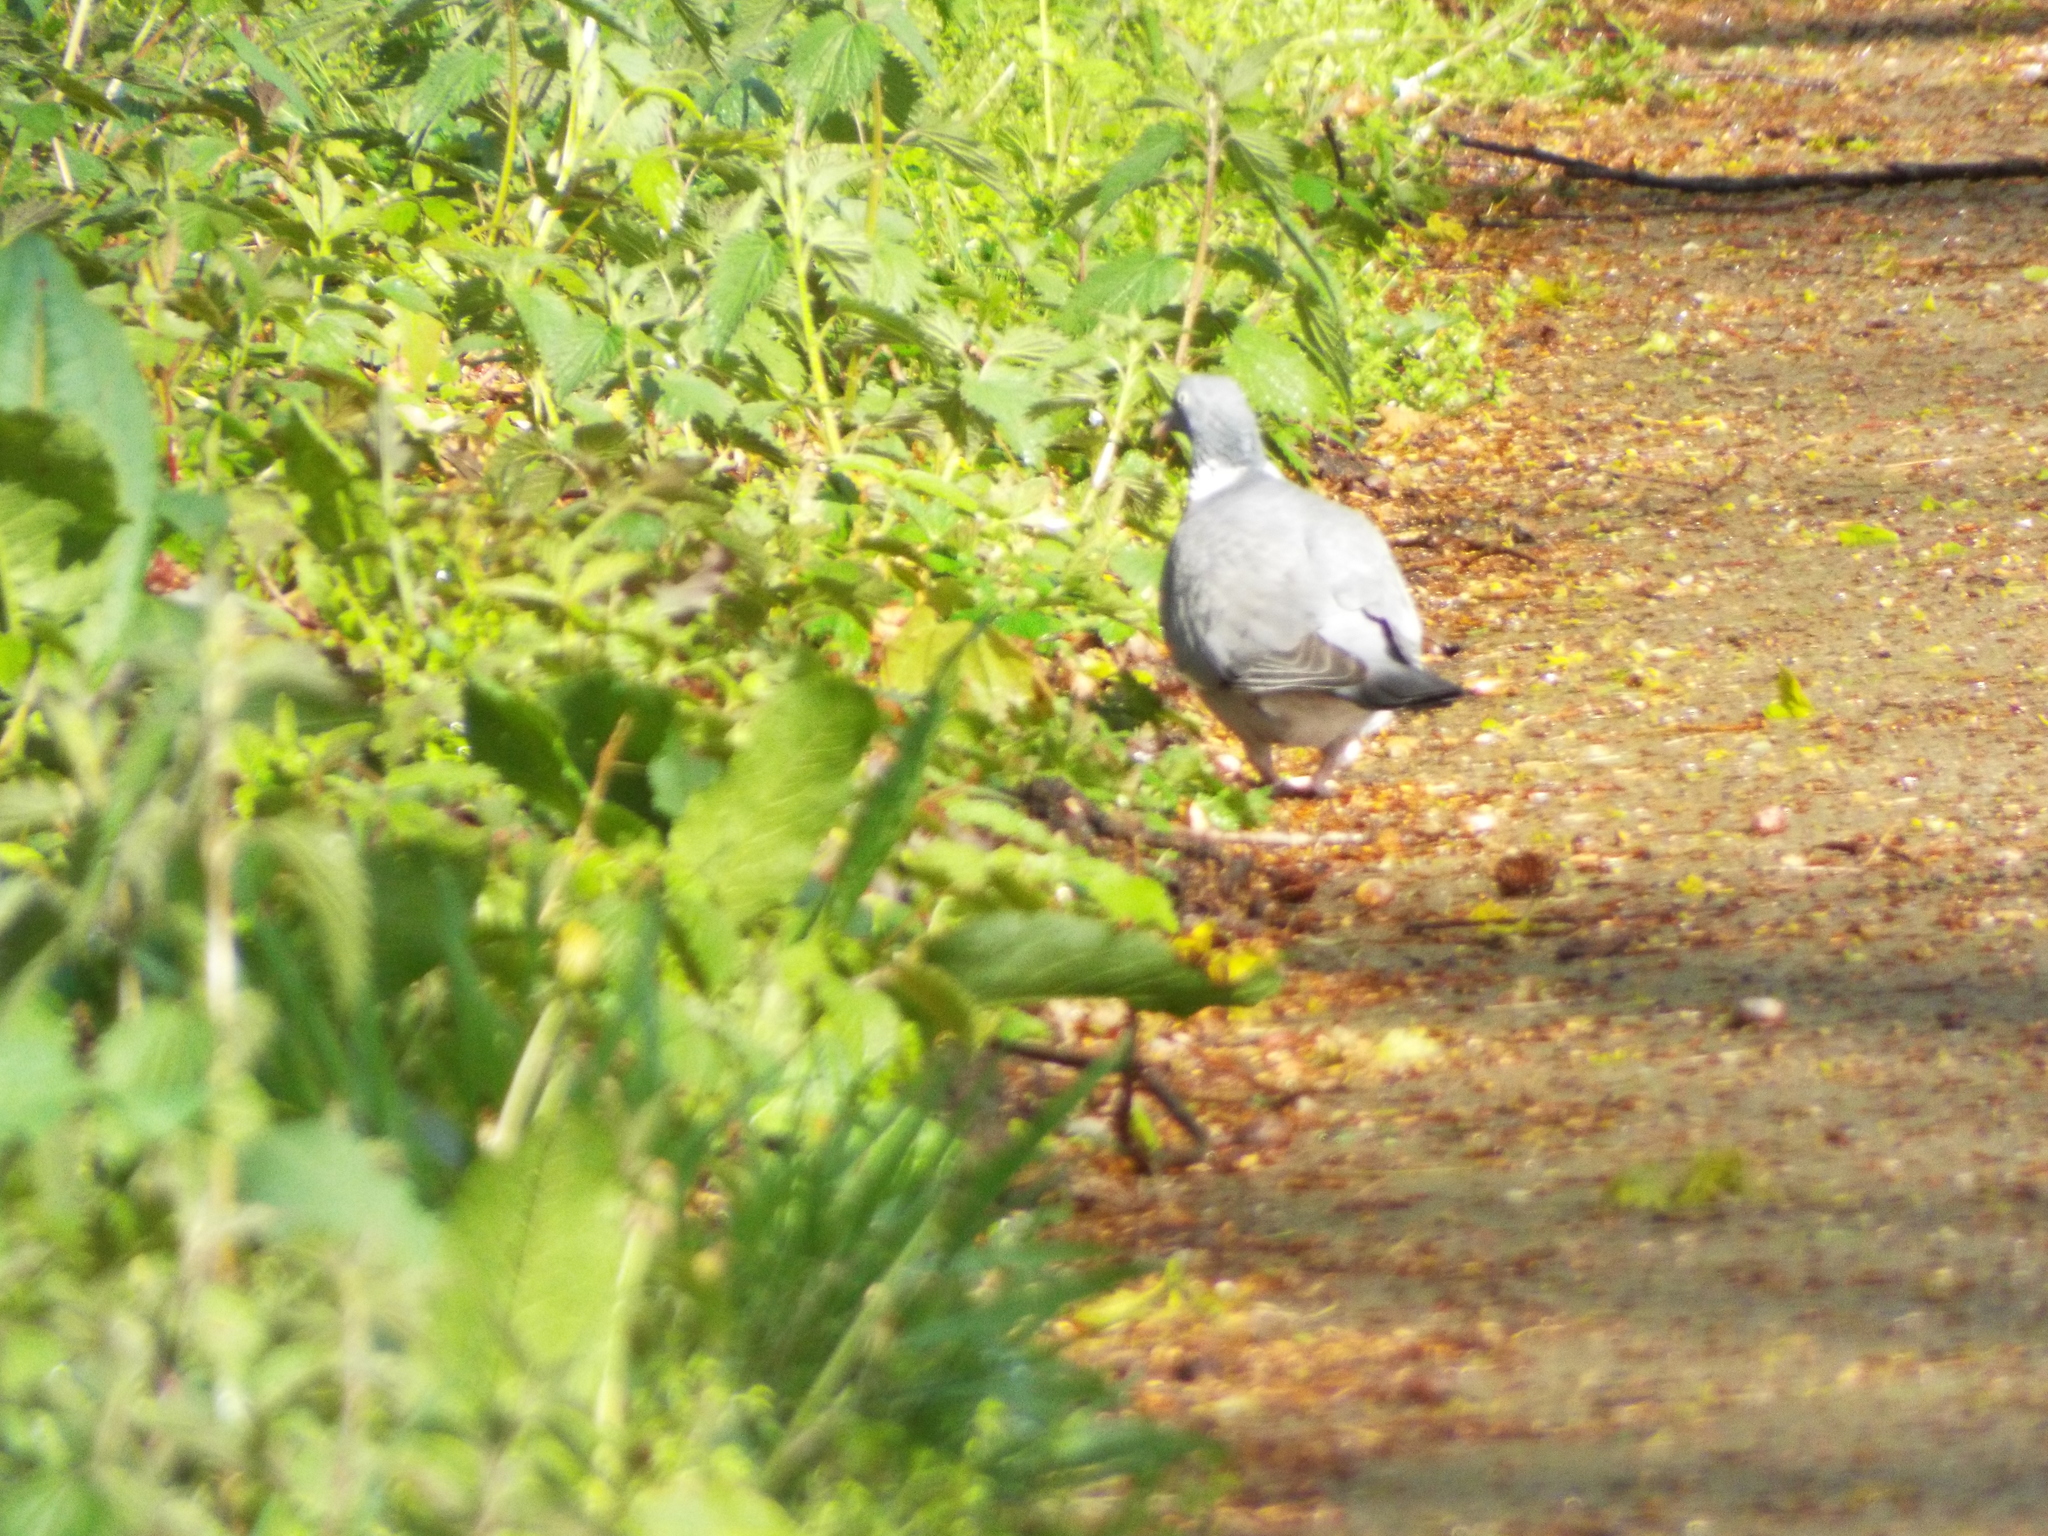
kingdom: Animalia
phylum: Chordata
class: Aves
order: Columbiformes
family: Columbidae
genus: Columba
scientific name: Columba palumbus
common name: Common wood pigeon
